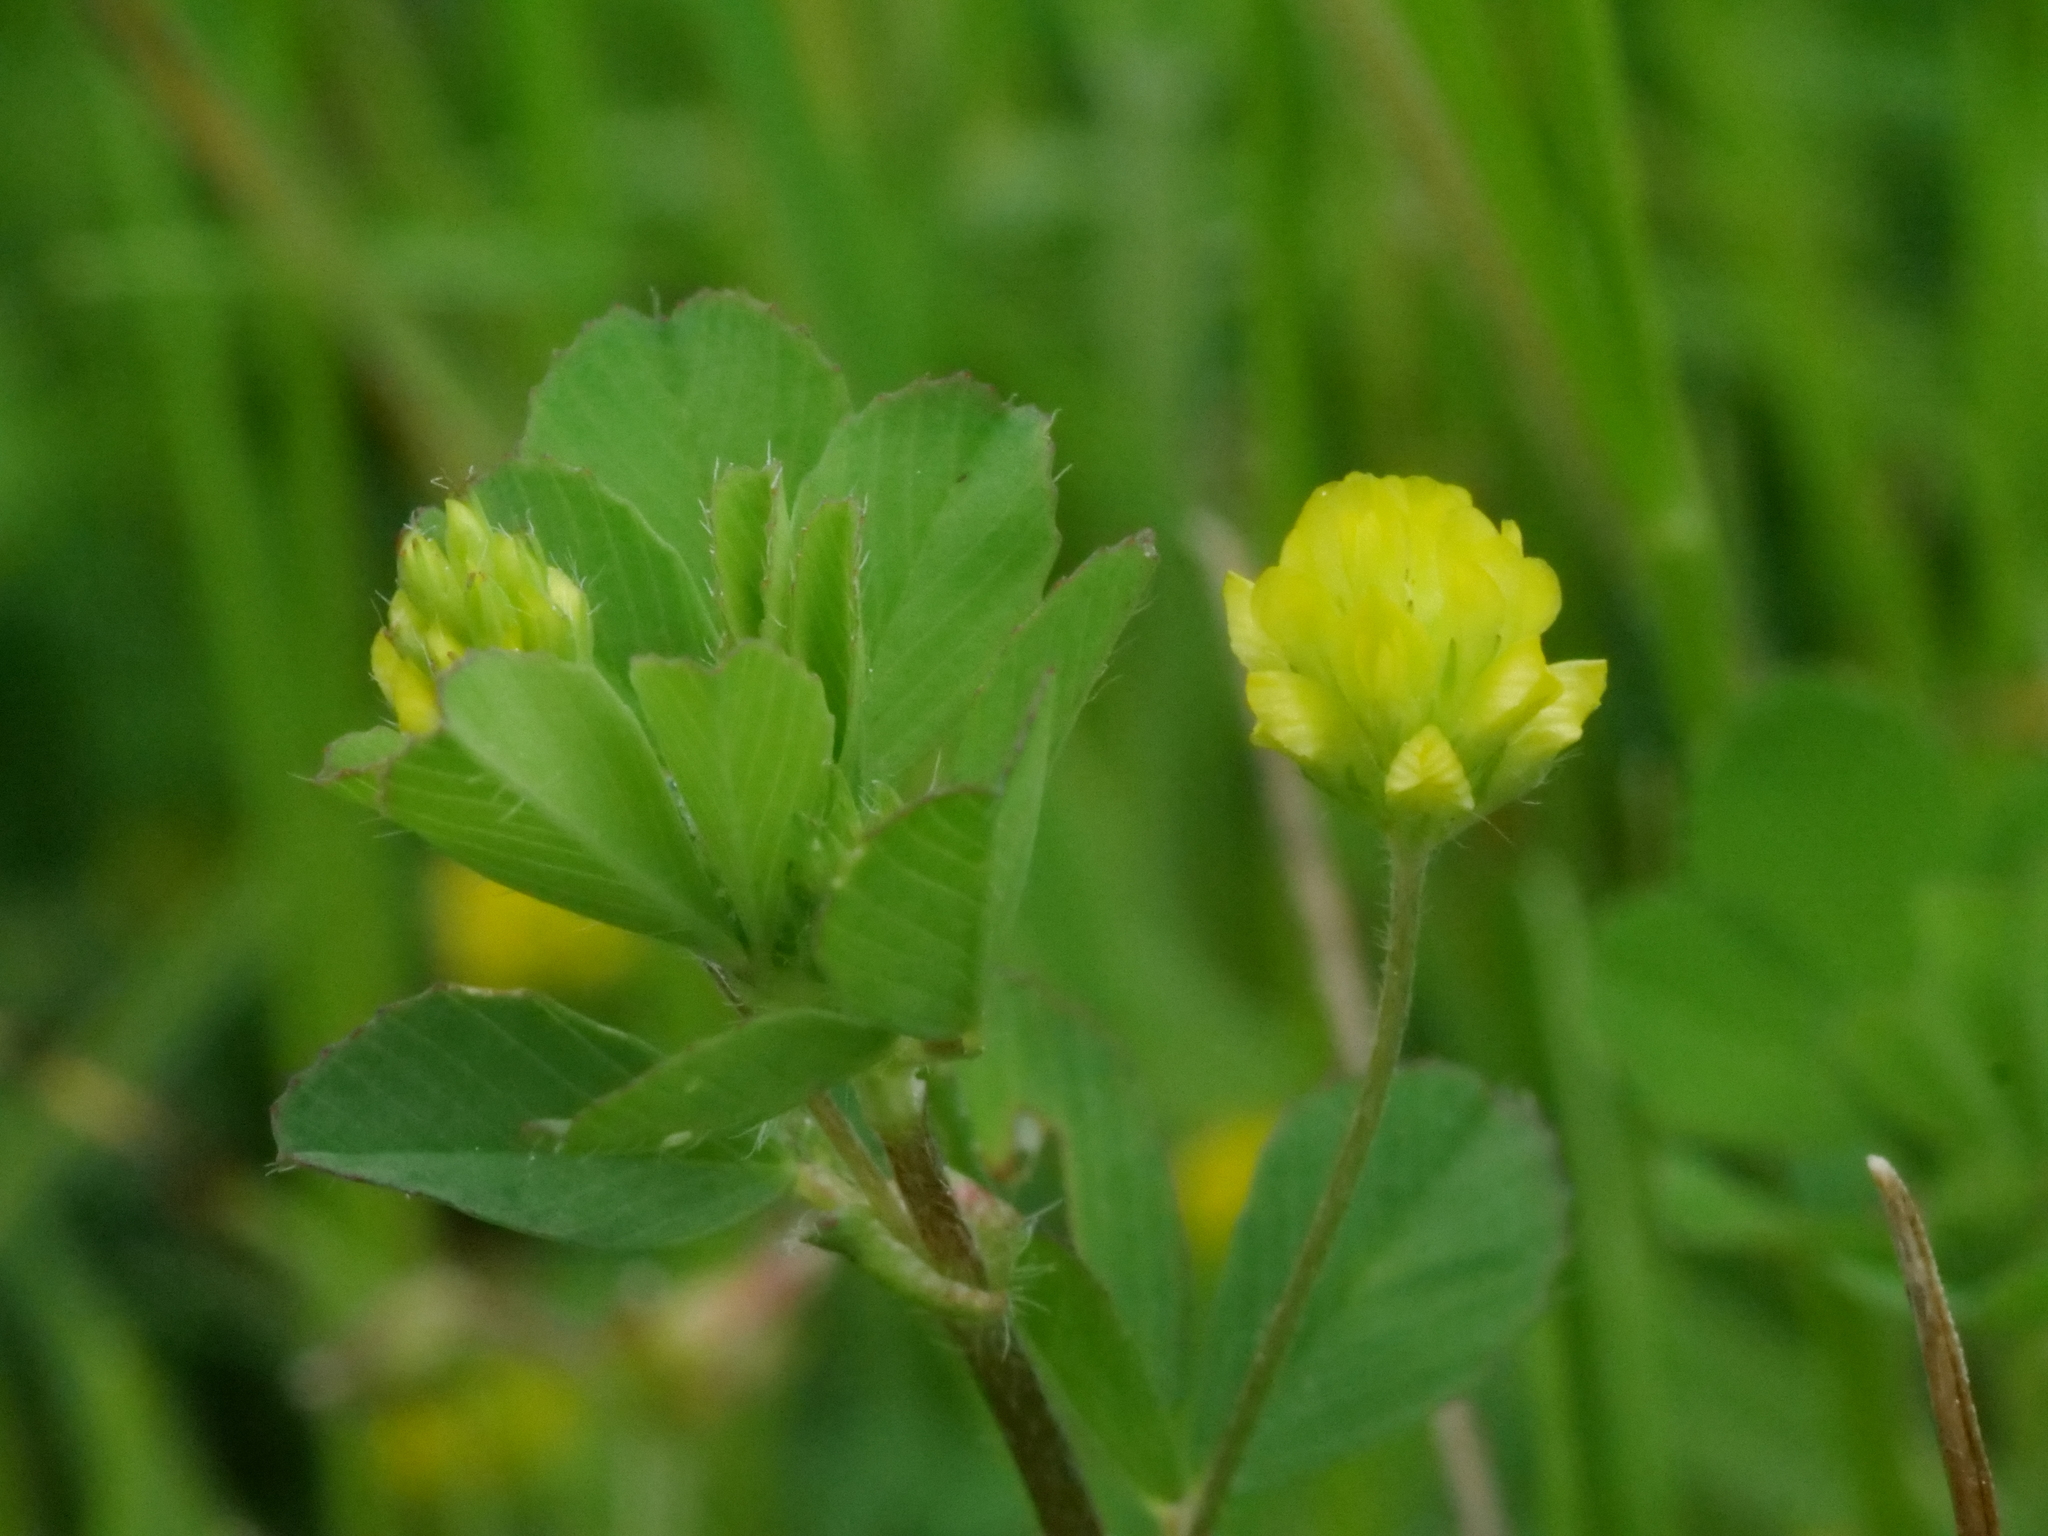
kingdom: Plantae
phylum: Tracheophyta
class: Magnoliopsida
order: Fabales
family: Fabaceae
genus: Trifolium
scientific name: Trifolium dubium
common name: Suckling clover
